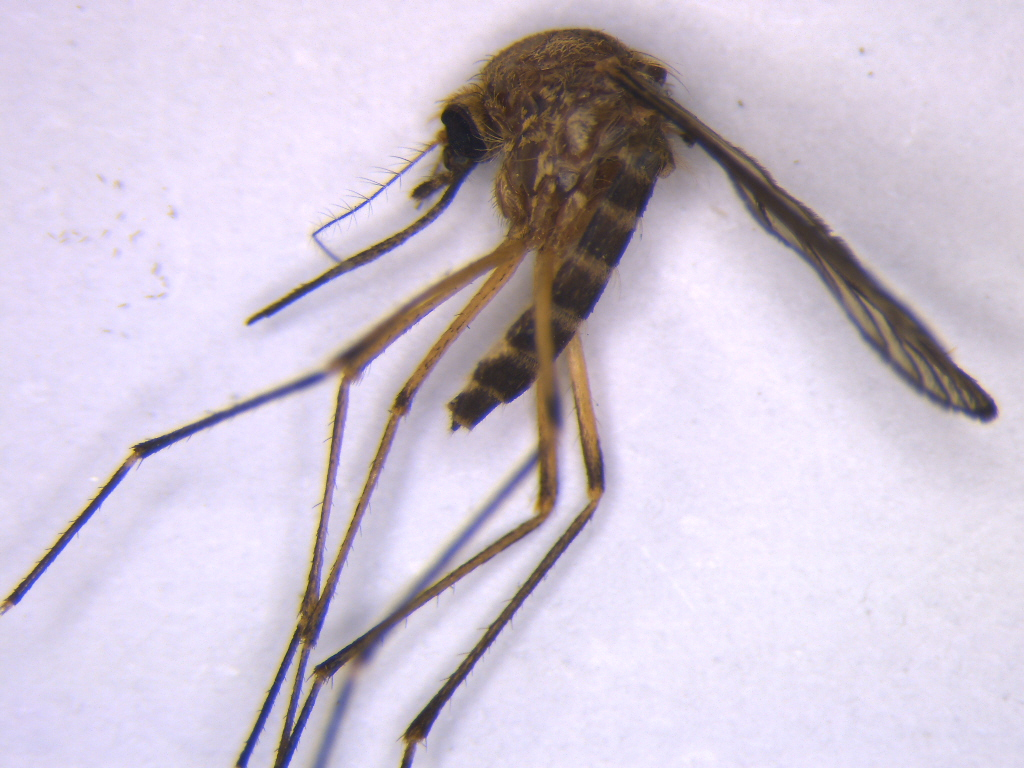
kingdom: Animalia
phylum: Arthropoda
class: Insecta
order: Diptera
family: Culicidae
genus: Aedes
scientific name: Aedes subalbirostris
